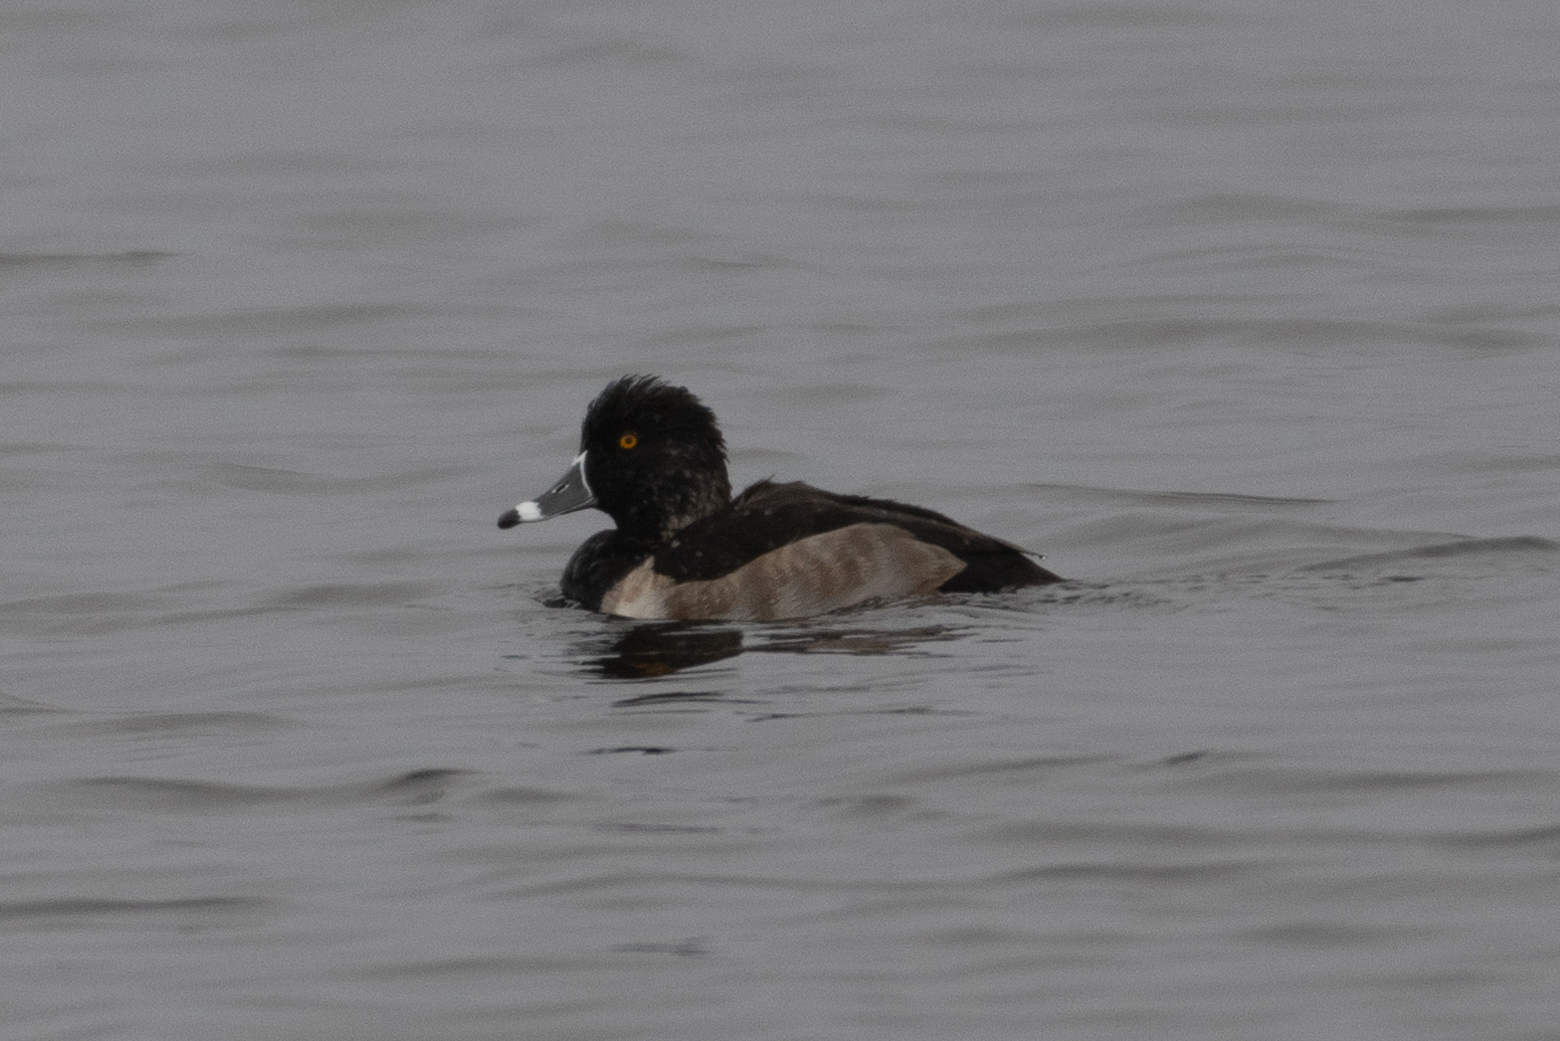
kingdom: Animalia
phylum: Chordata
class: Aves
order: Anseriformes
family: Anatidae
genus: Aythya
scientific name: Aythya collaris
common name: Ring-necked duck
